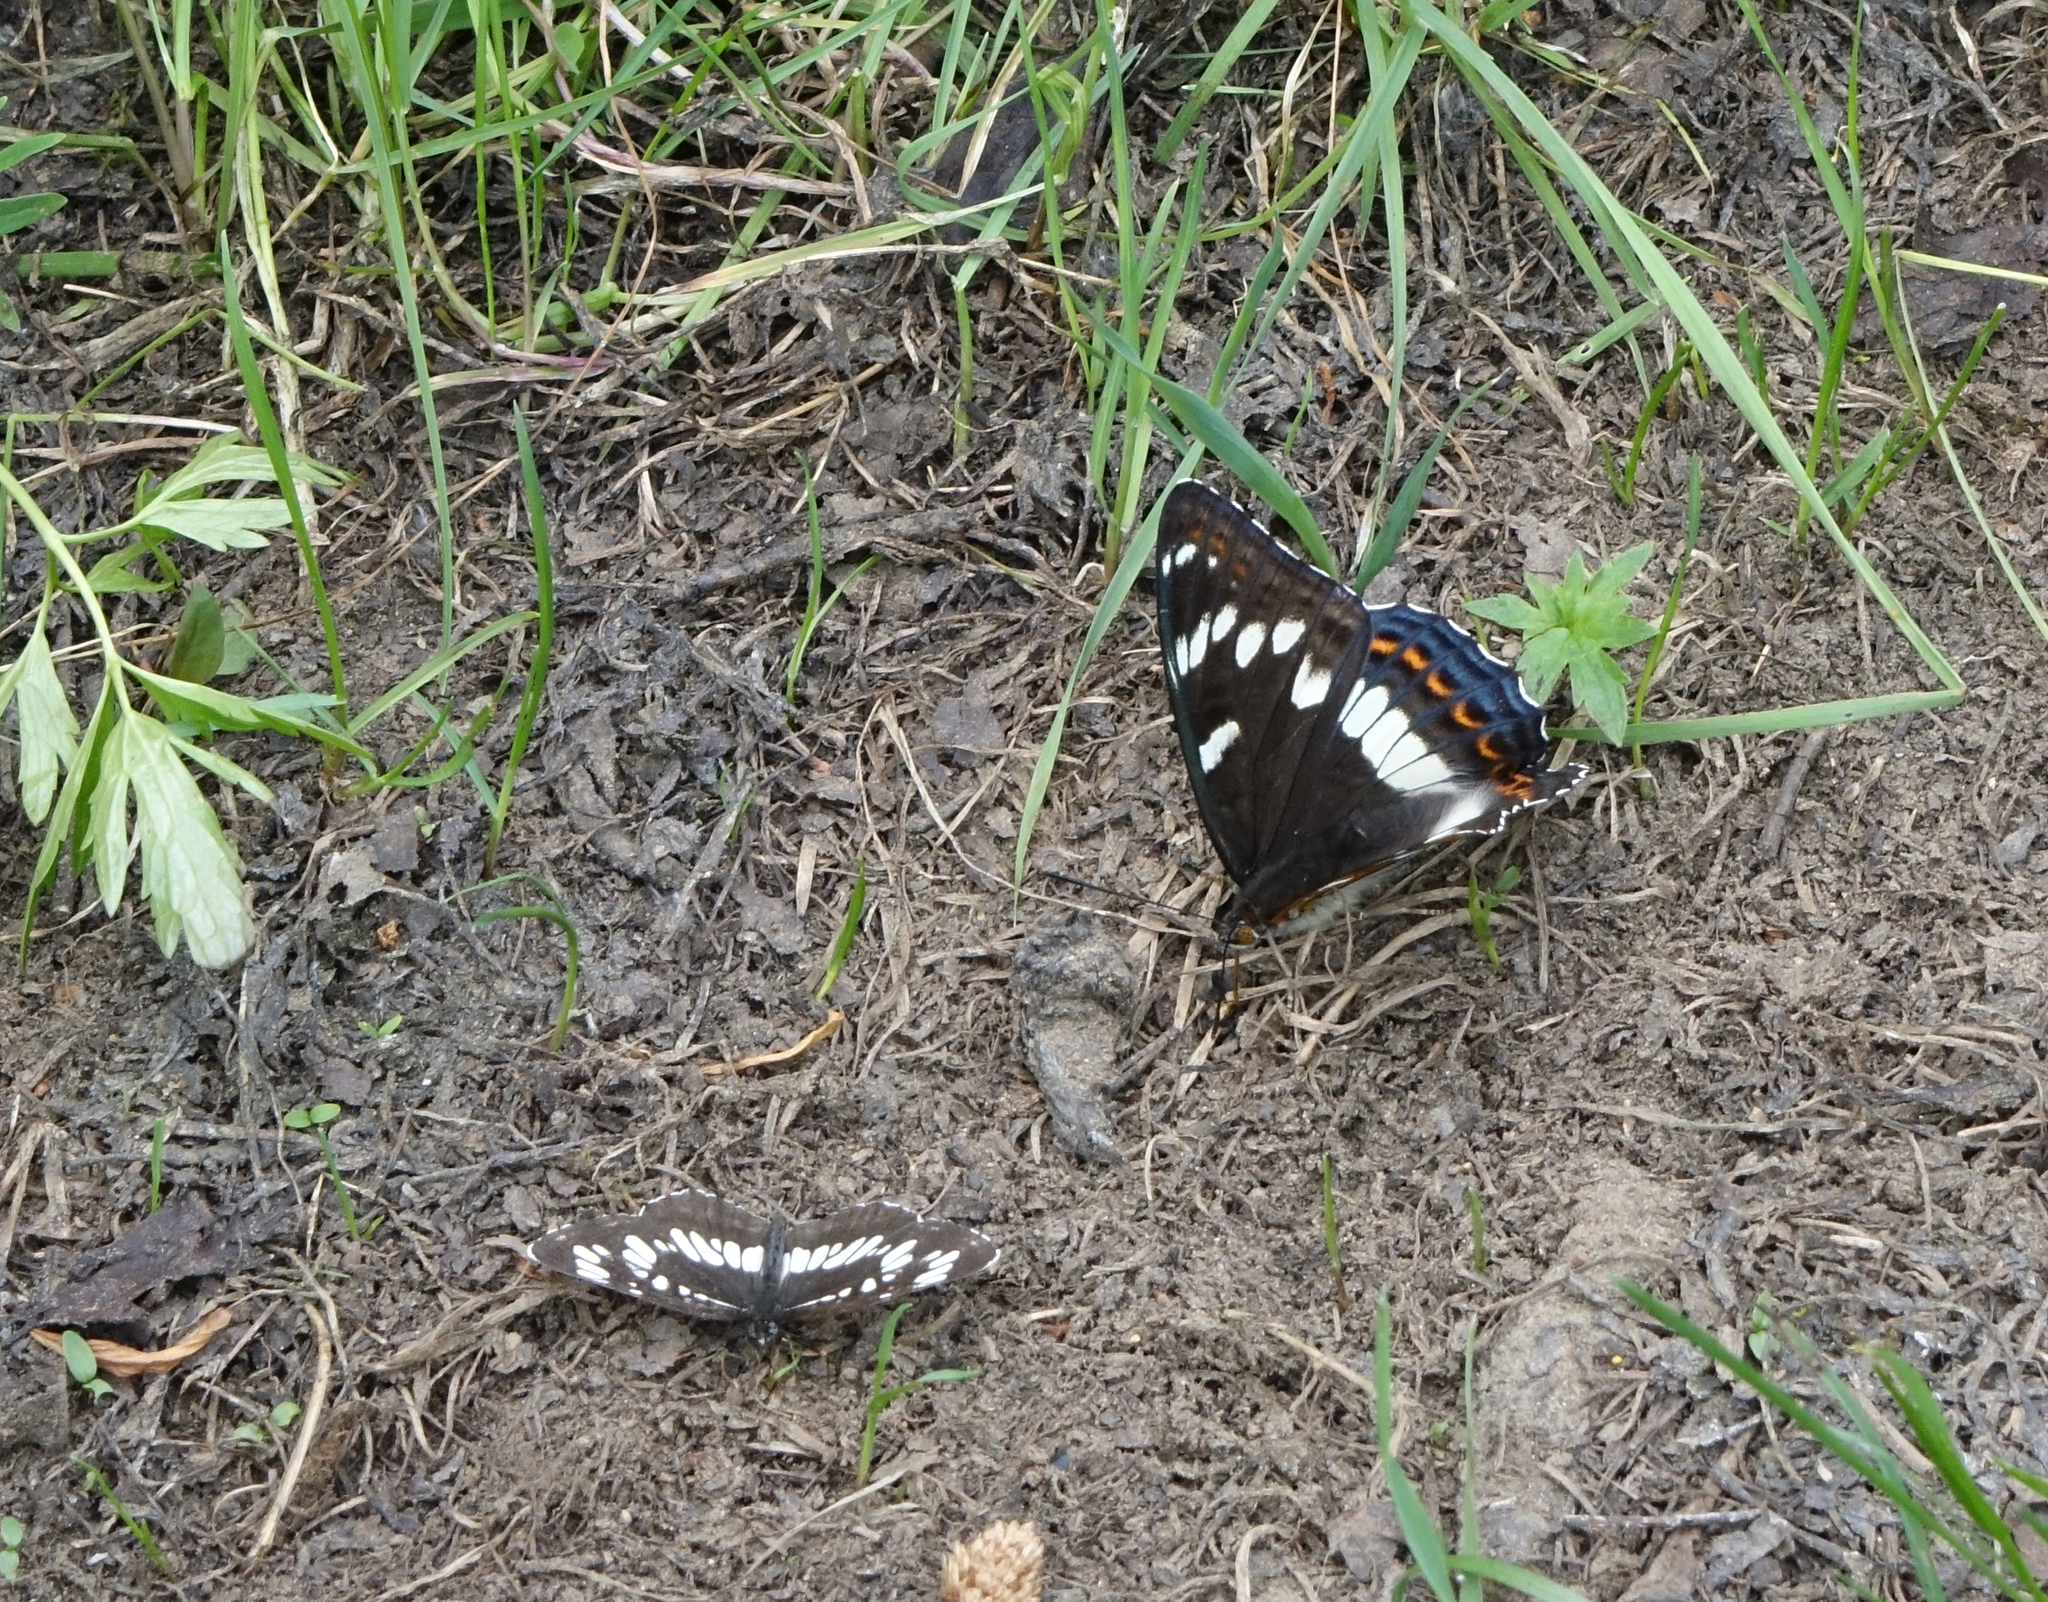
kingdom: Animalia
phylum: Arthropoda
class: Insecta
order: Lepidoptera
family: Nymphalidae
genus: Neptis
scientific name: Neptis rivularis
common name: Hungarian glider
